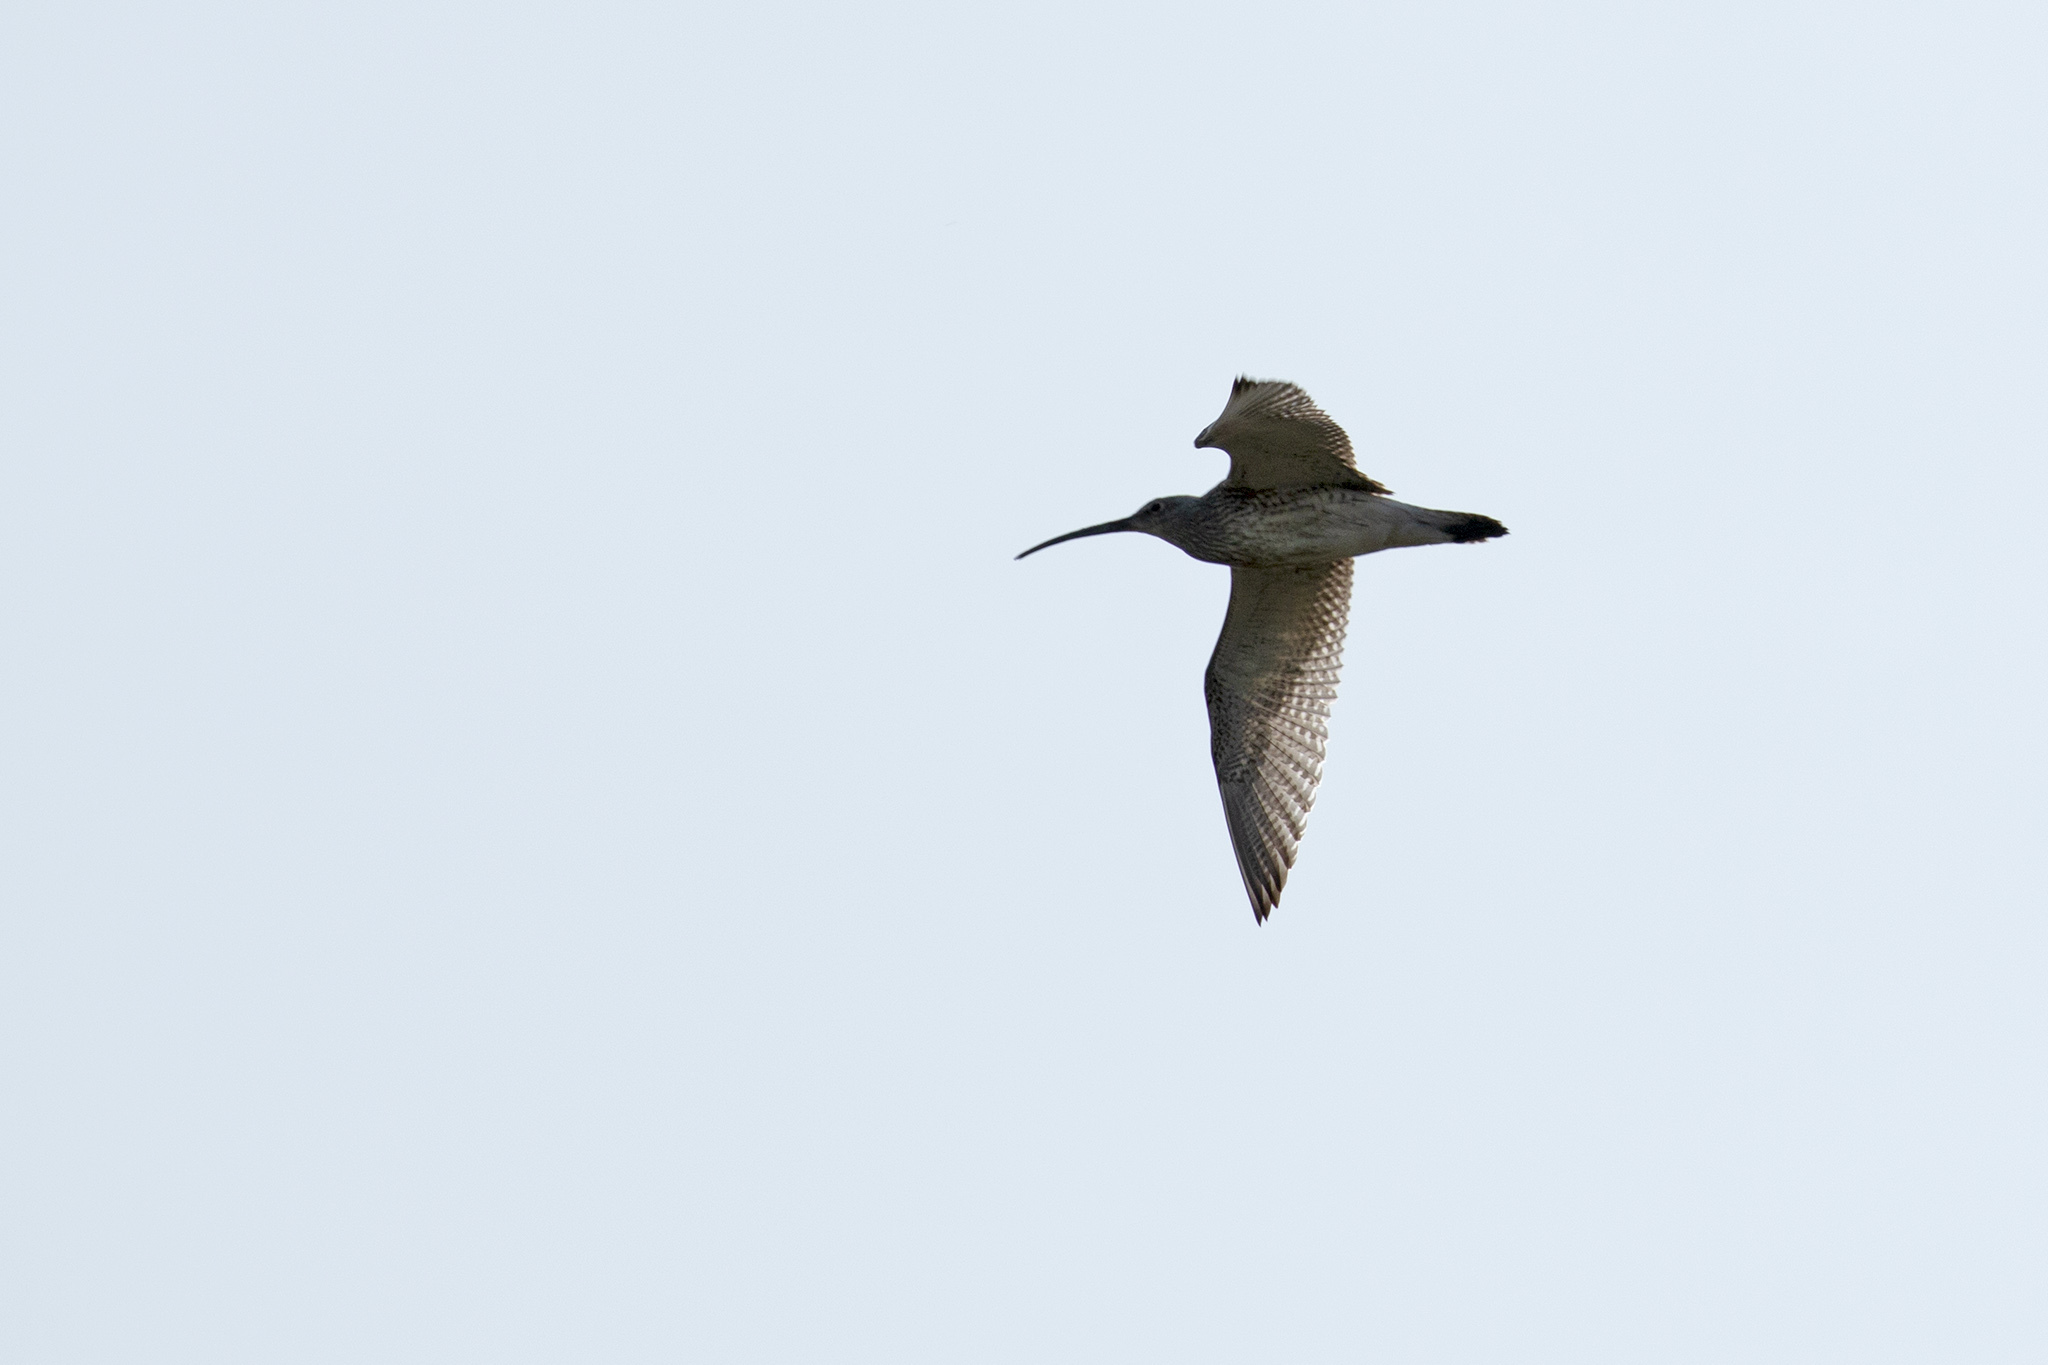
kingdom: Animalia
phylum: Chordata
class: Aves
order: Charadriiformes
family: Scolopacidae
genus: Numenius
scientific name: Numenius arquata
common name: Eurasian curlew
